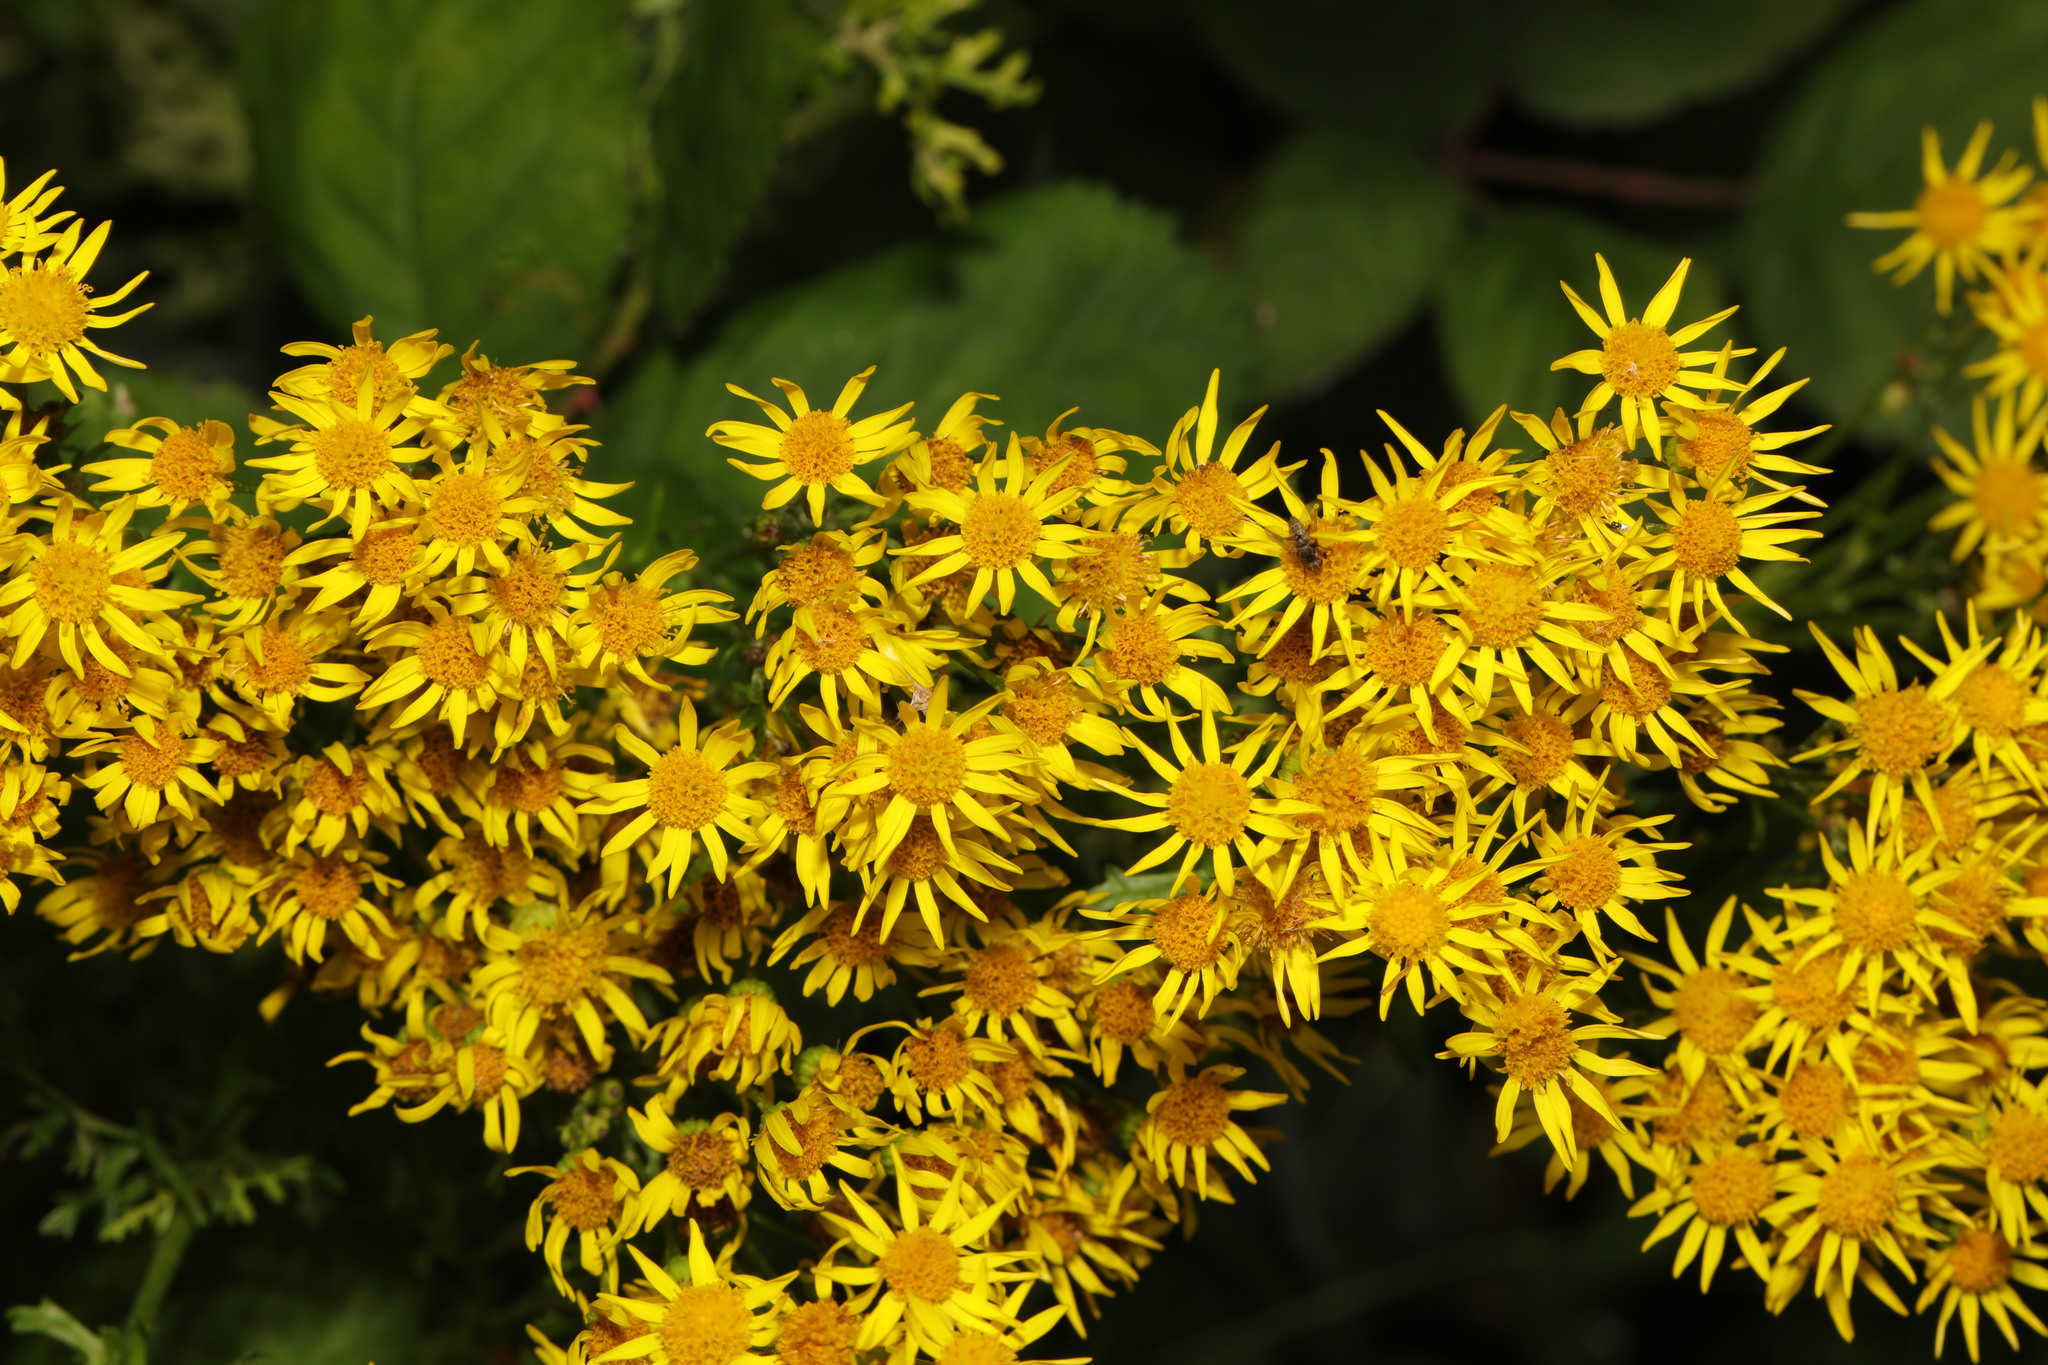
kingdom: Plantae
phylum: Tracheophyta
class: Magnoliopsida
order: Asterales
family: Asteraceae
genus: Jacobaea
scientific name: Jacobaea vulgaris
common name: Stinking willie
